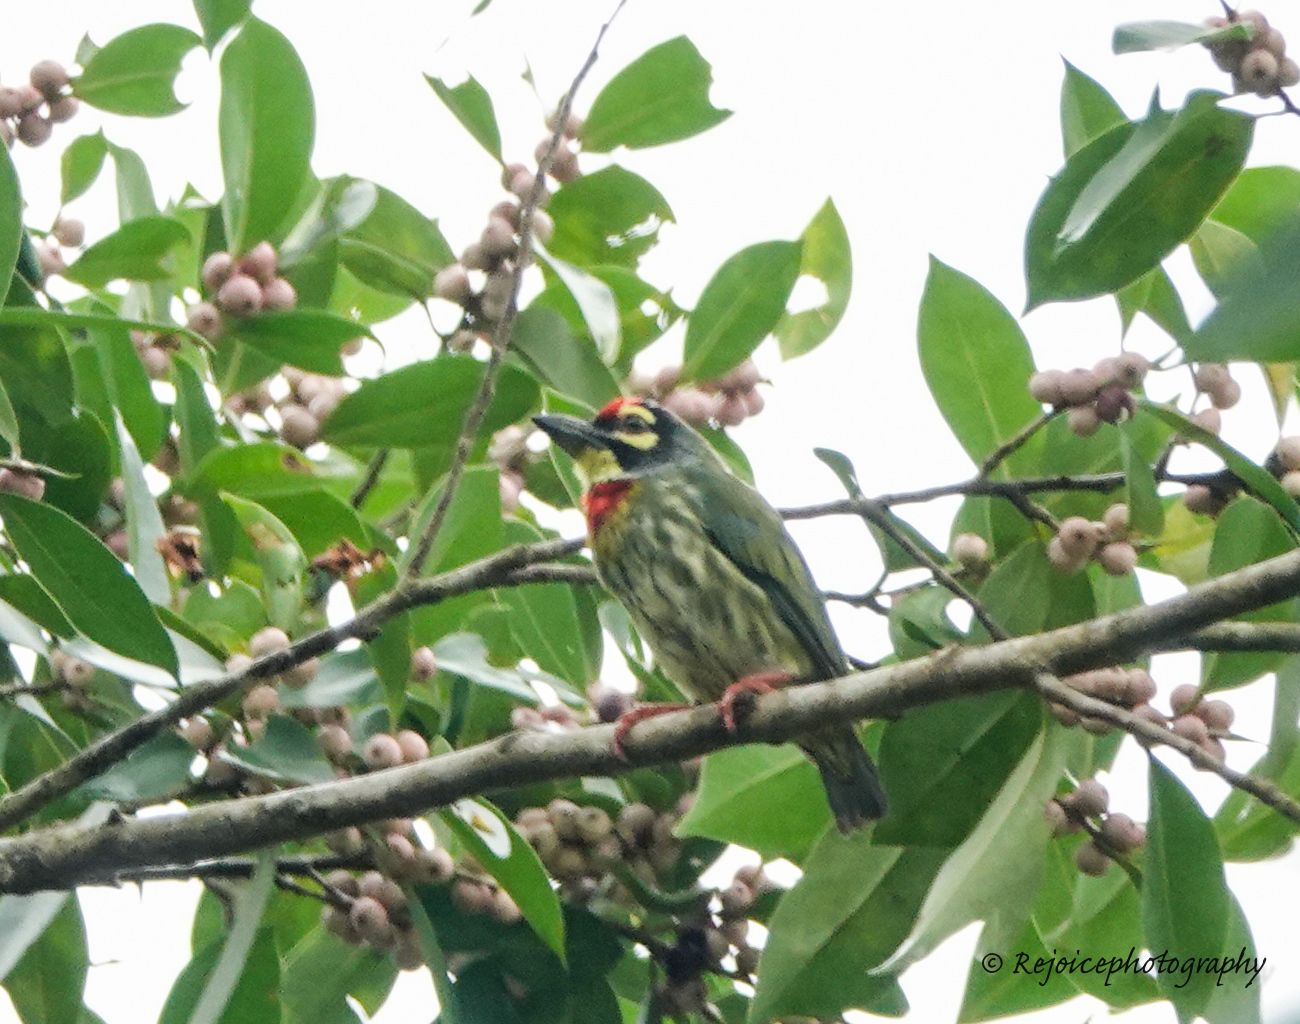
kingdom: Animalia
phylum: Chordata
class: Aves
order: Piciformes
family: Megalaimidae
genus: Psilopogon
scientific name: Psilopogon haemacephalus
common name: Coppersmith barbet
